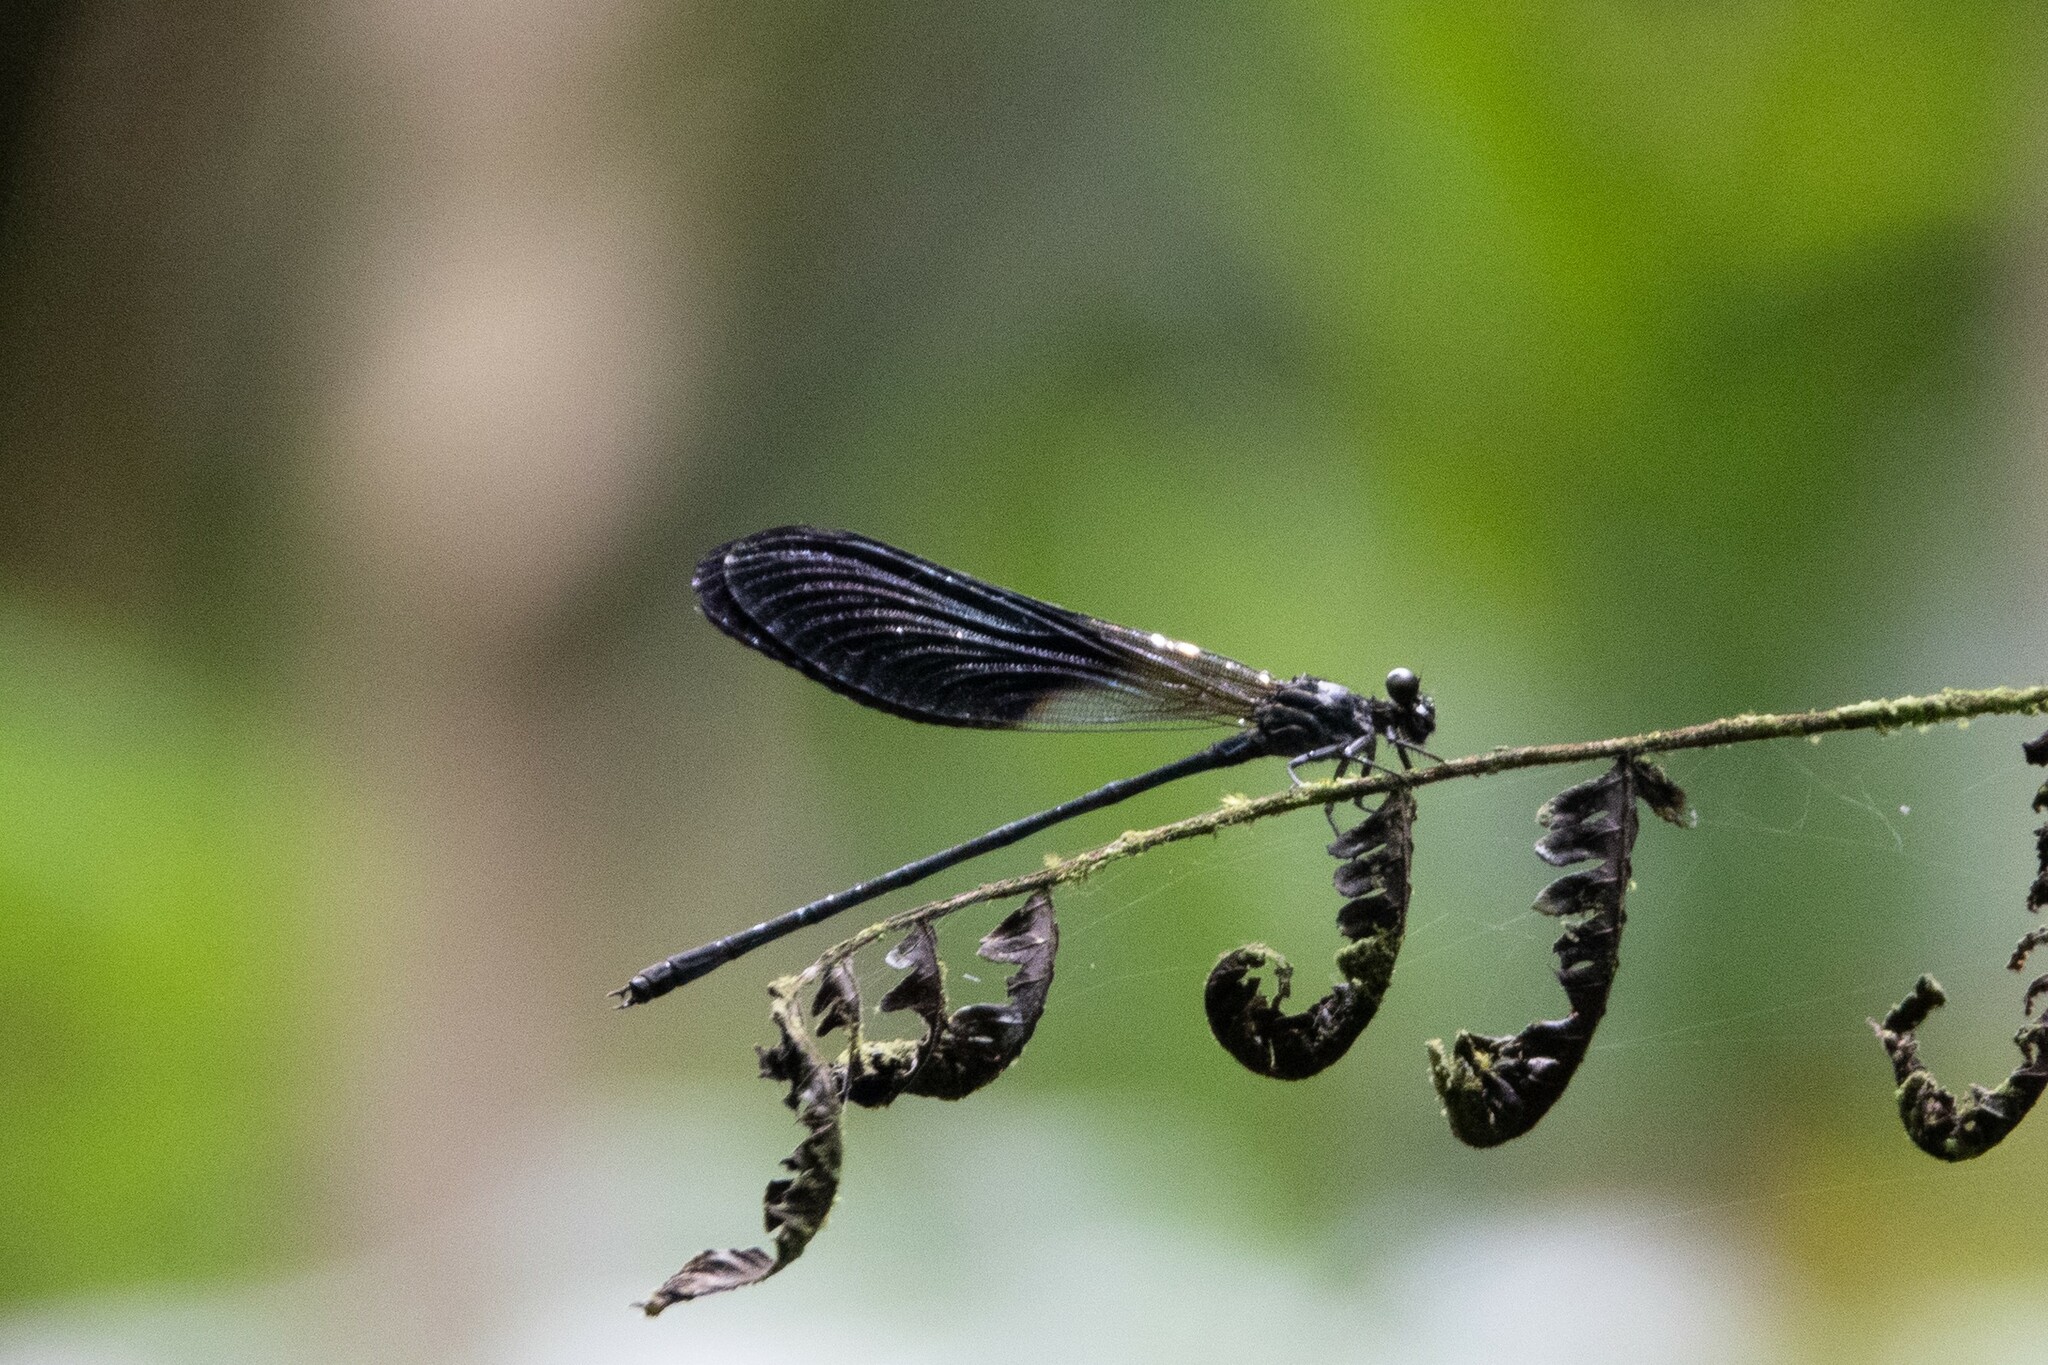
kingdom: Animalia
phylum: Arthropoda
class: Insecta
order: Odonata
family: Polythoridae
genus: Polythore
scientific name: Polythore gigantea
